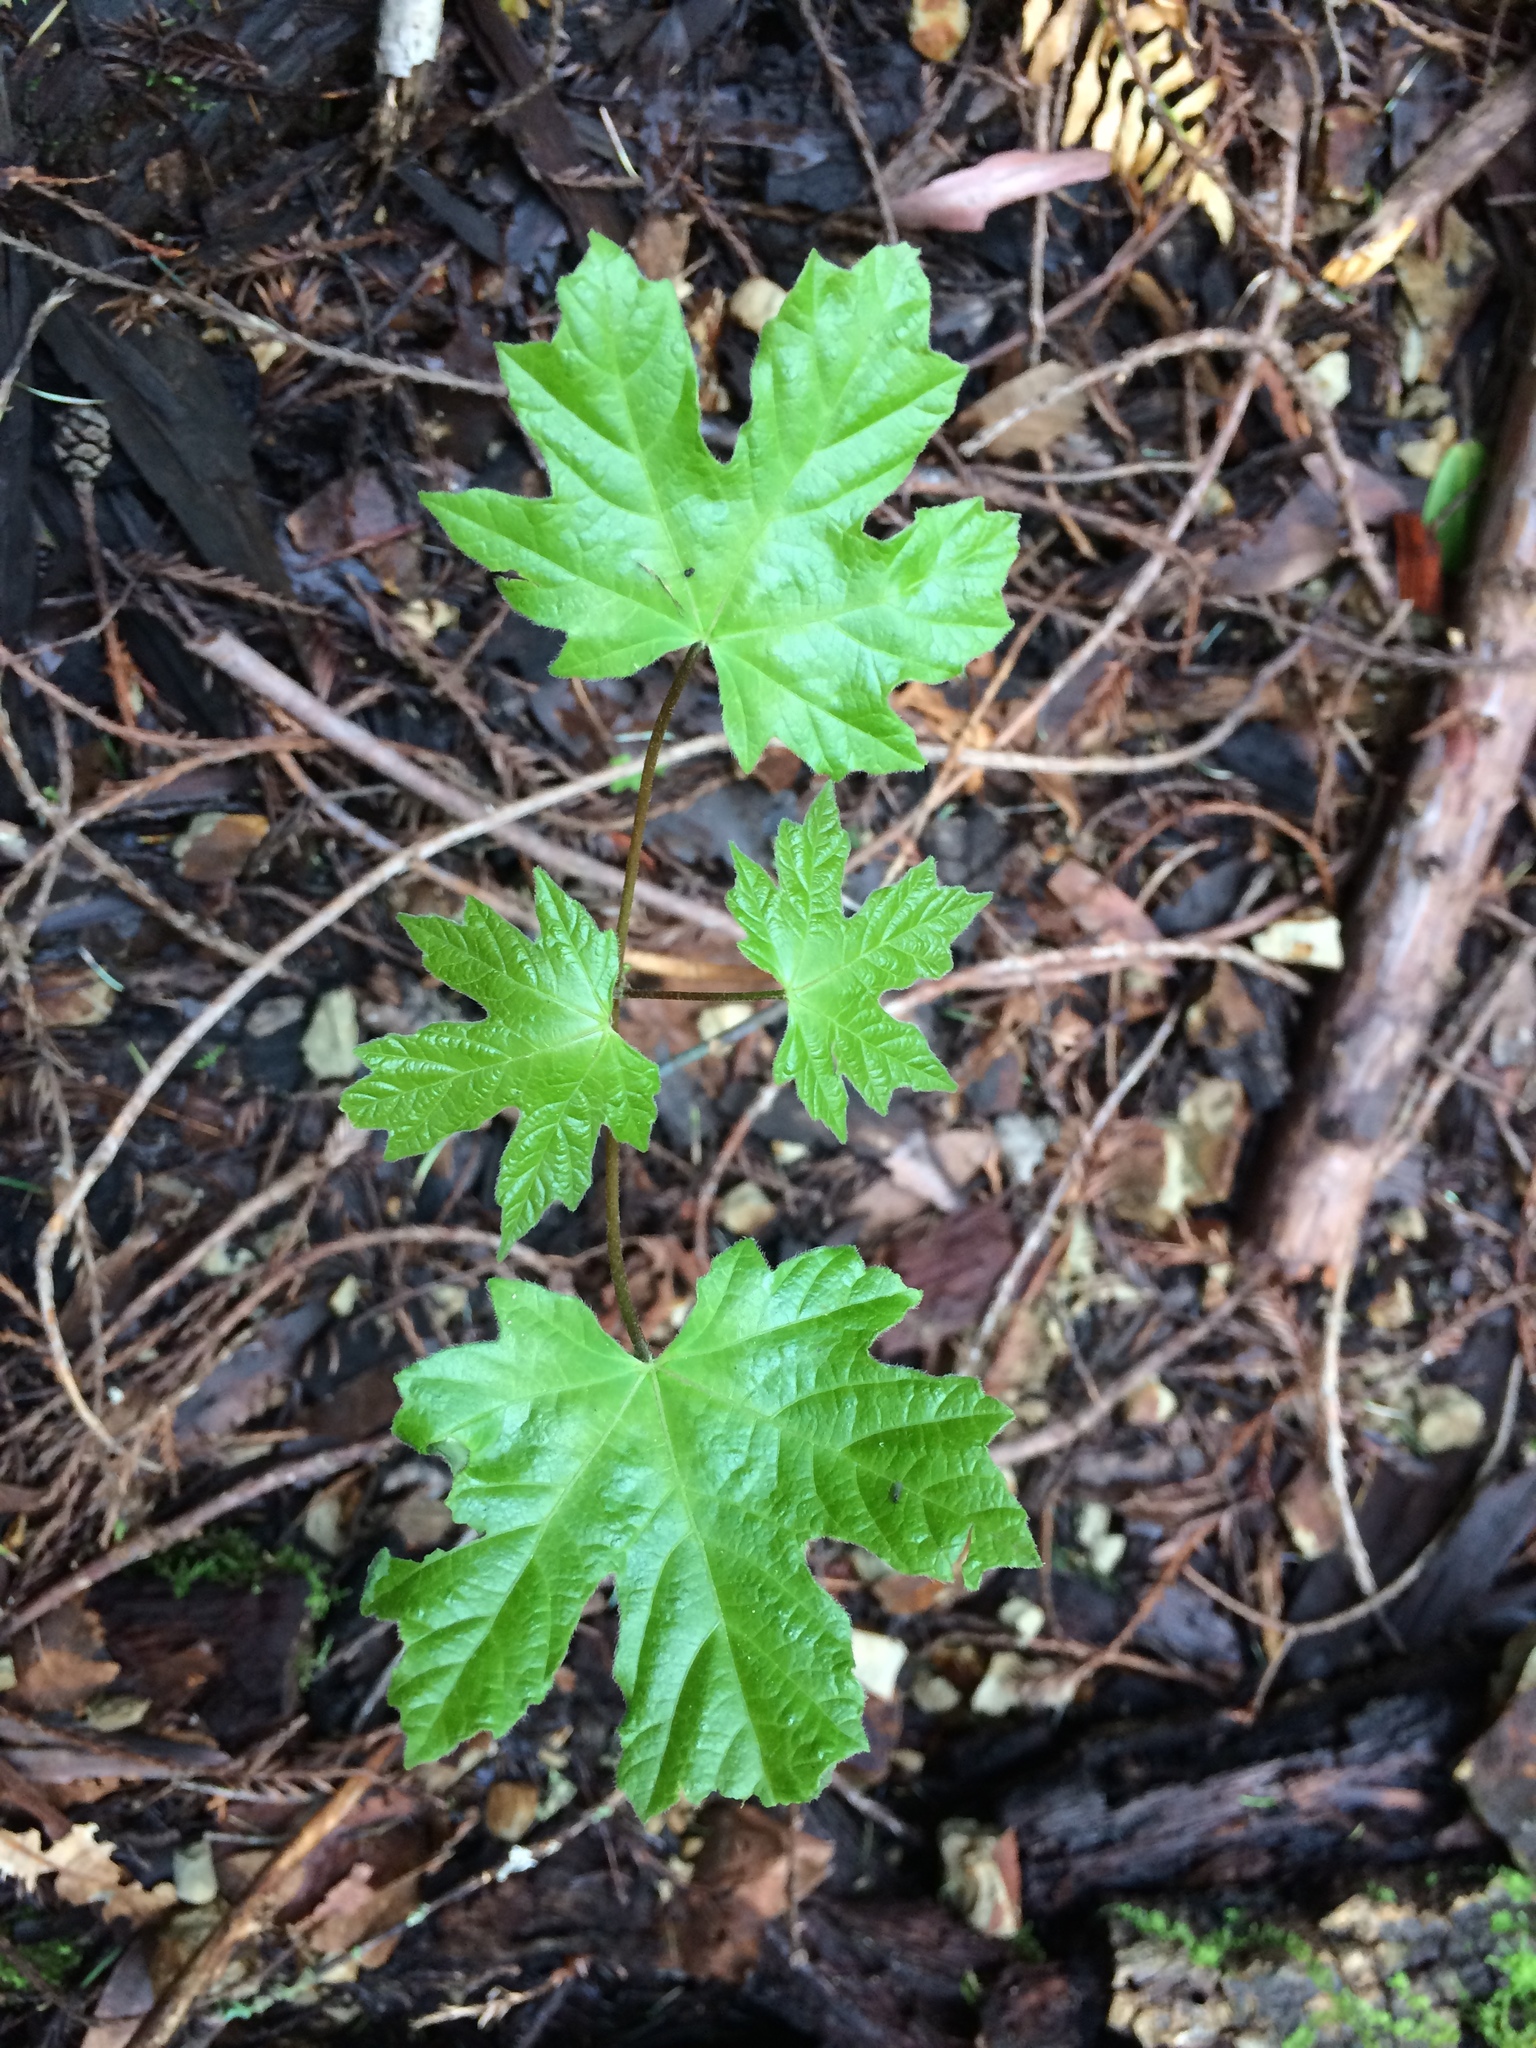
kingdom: Plantae
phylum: Tracheophyta
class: Magnoliopsida
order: Sapindales
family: Sapindaceae
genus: Acer
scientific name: Acer macrophyllum
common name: Oregon maple
